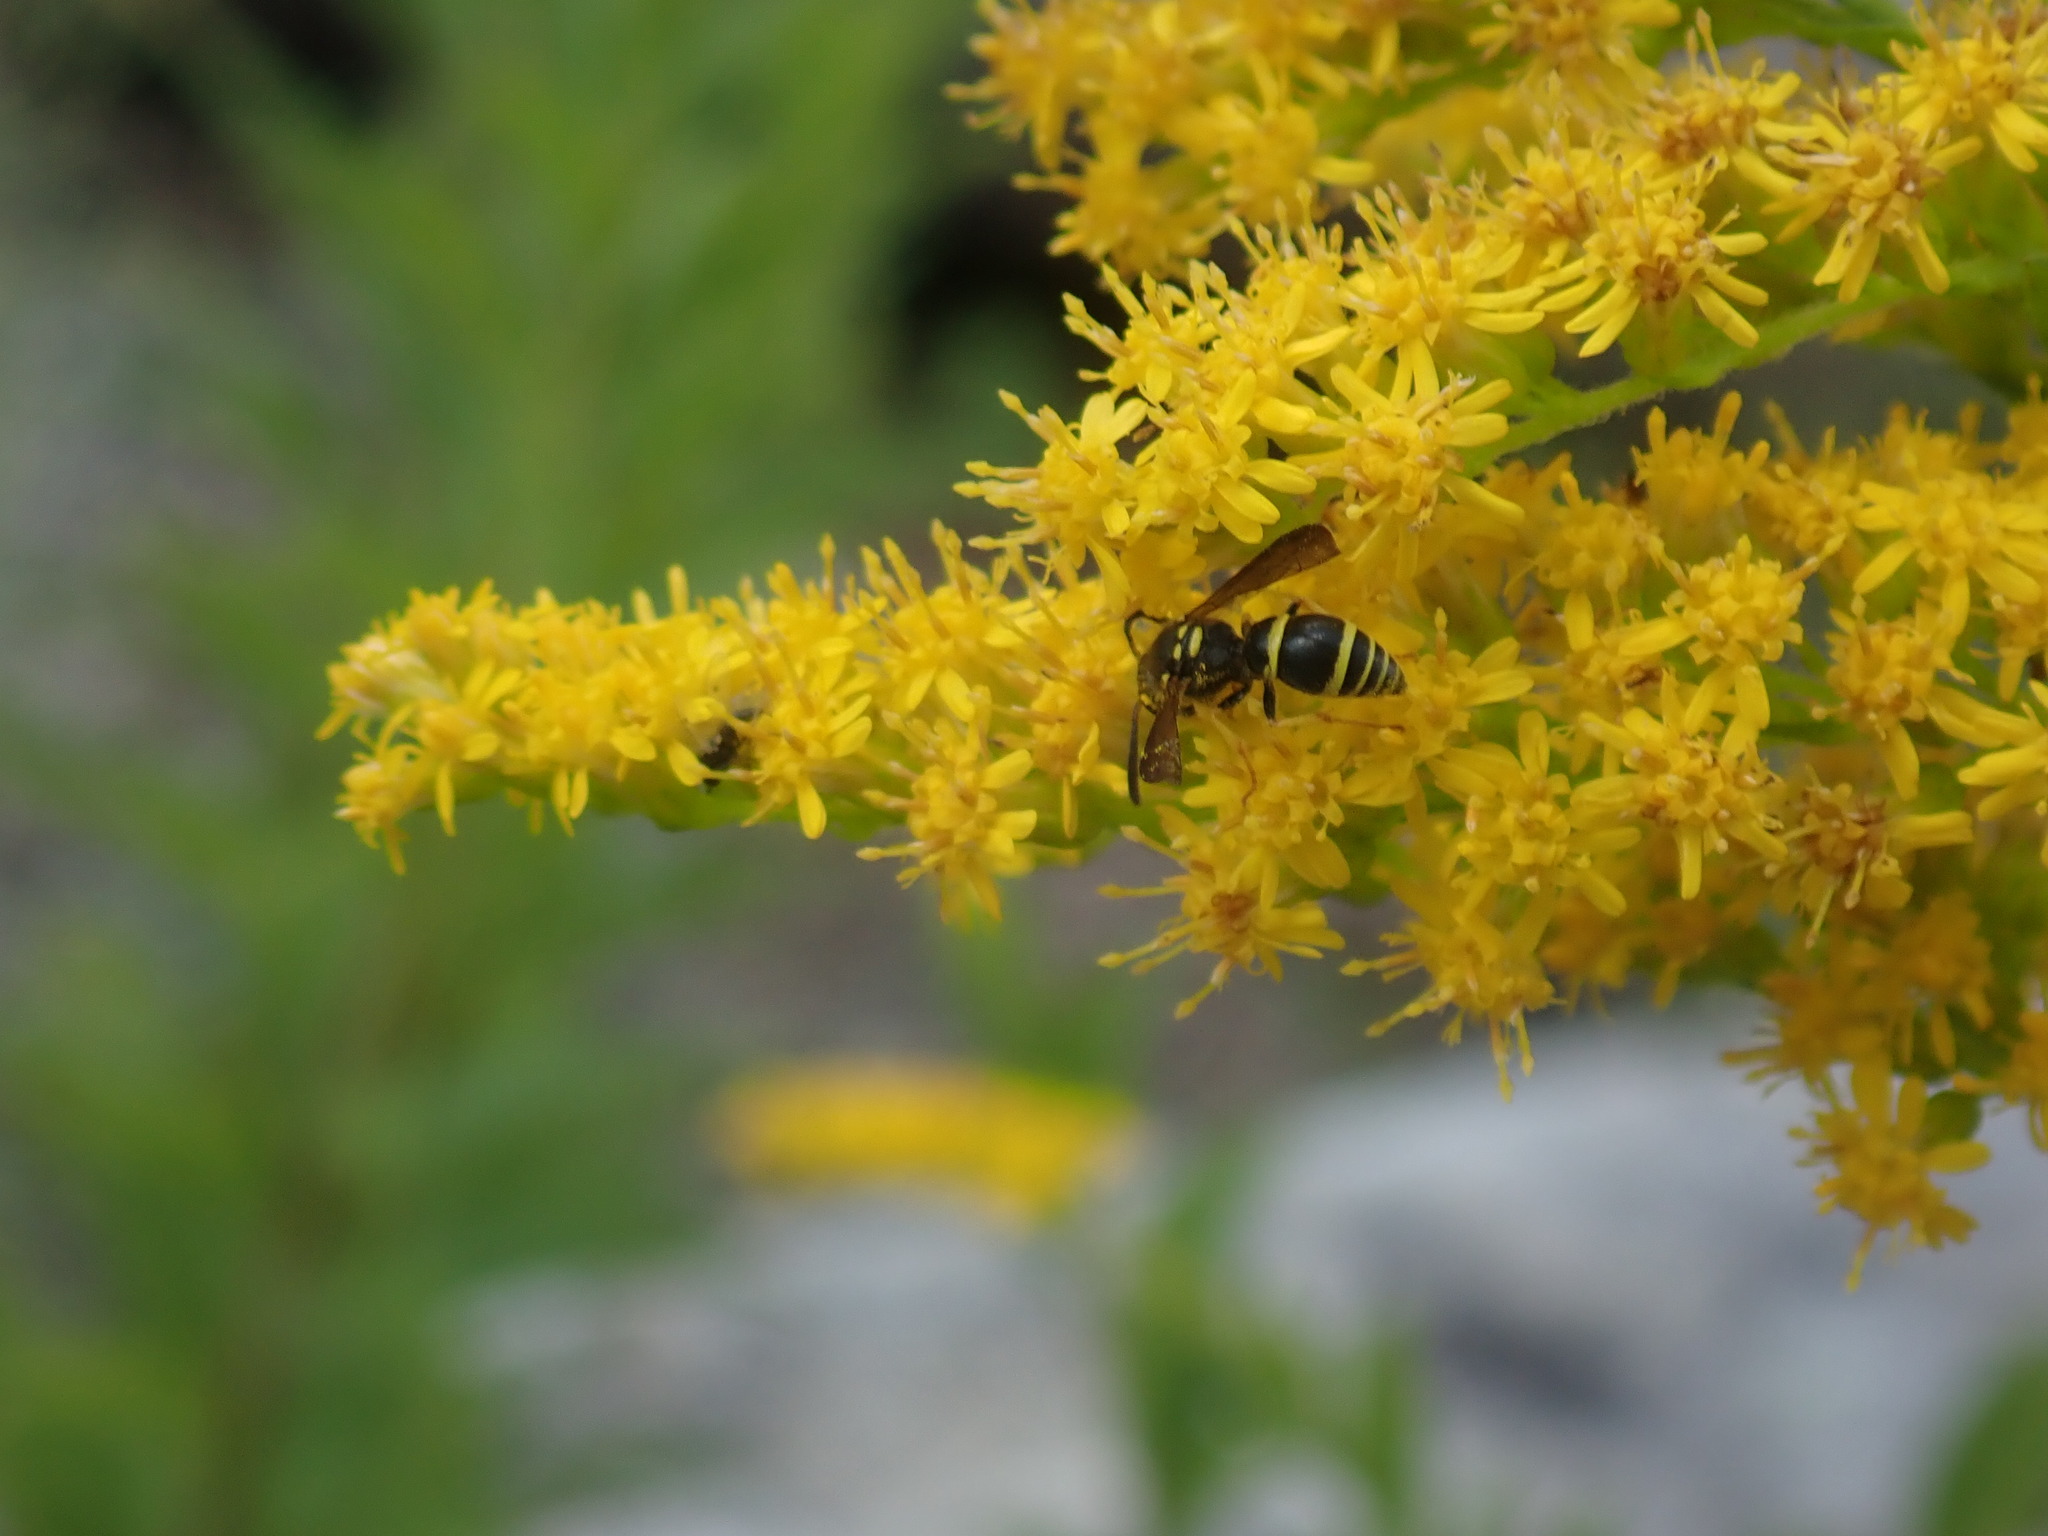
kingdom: Animalia
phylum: Arthropoda
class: Insecta
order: Hymenoptera
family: Vespidae
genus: Ancistrocerus
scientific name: Ancistrocerus adiabatus
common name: Bramble mason wasp
